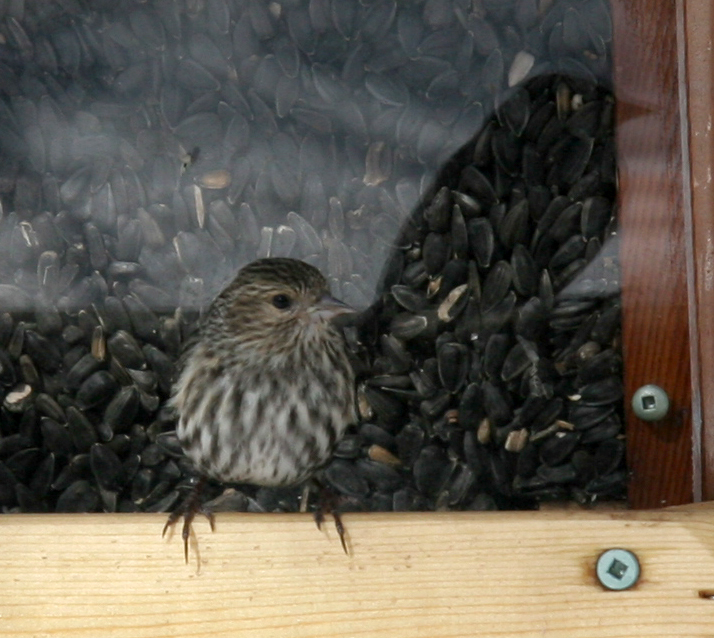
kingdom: Animalia
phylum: Chordata
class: Aves
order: Passeriformes
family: Fringillidae
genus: Spinus
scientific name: Spinus pinus
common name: Pine siskin
